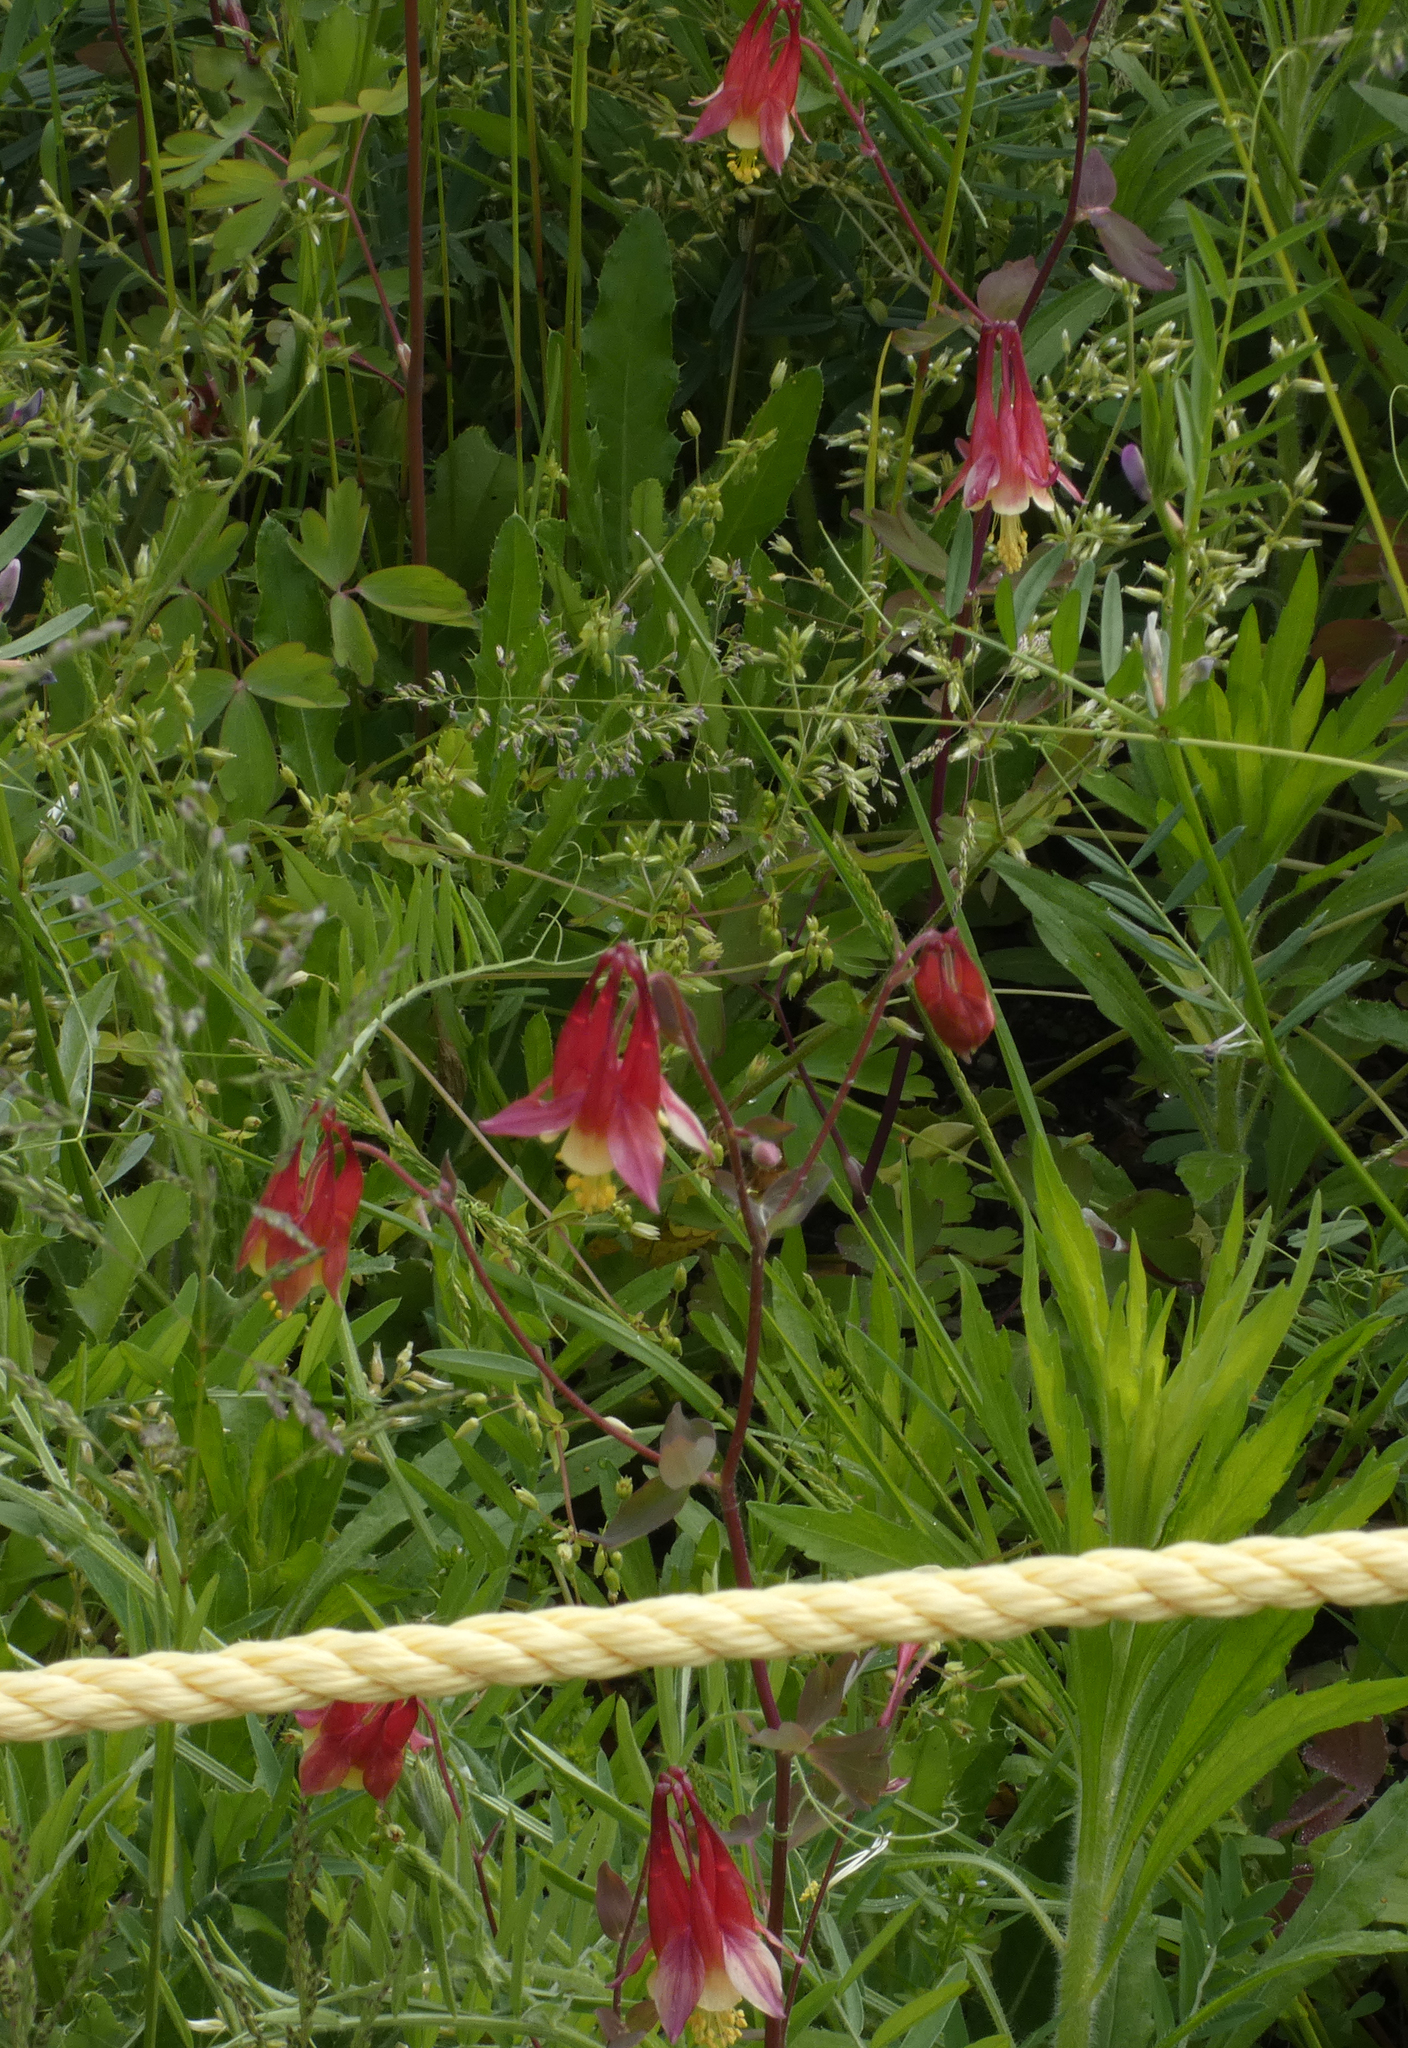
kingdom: Plantae
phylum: Tracheophyta
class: Magnoliopsida
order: Ranunculales
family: Ranunculaceae
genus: Aquilegia
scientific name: Aquilegia canadensis
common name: American columbine
